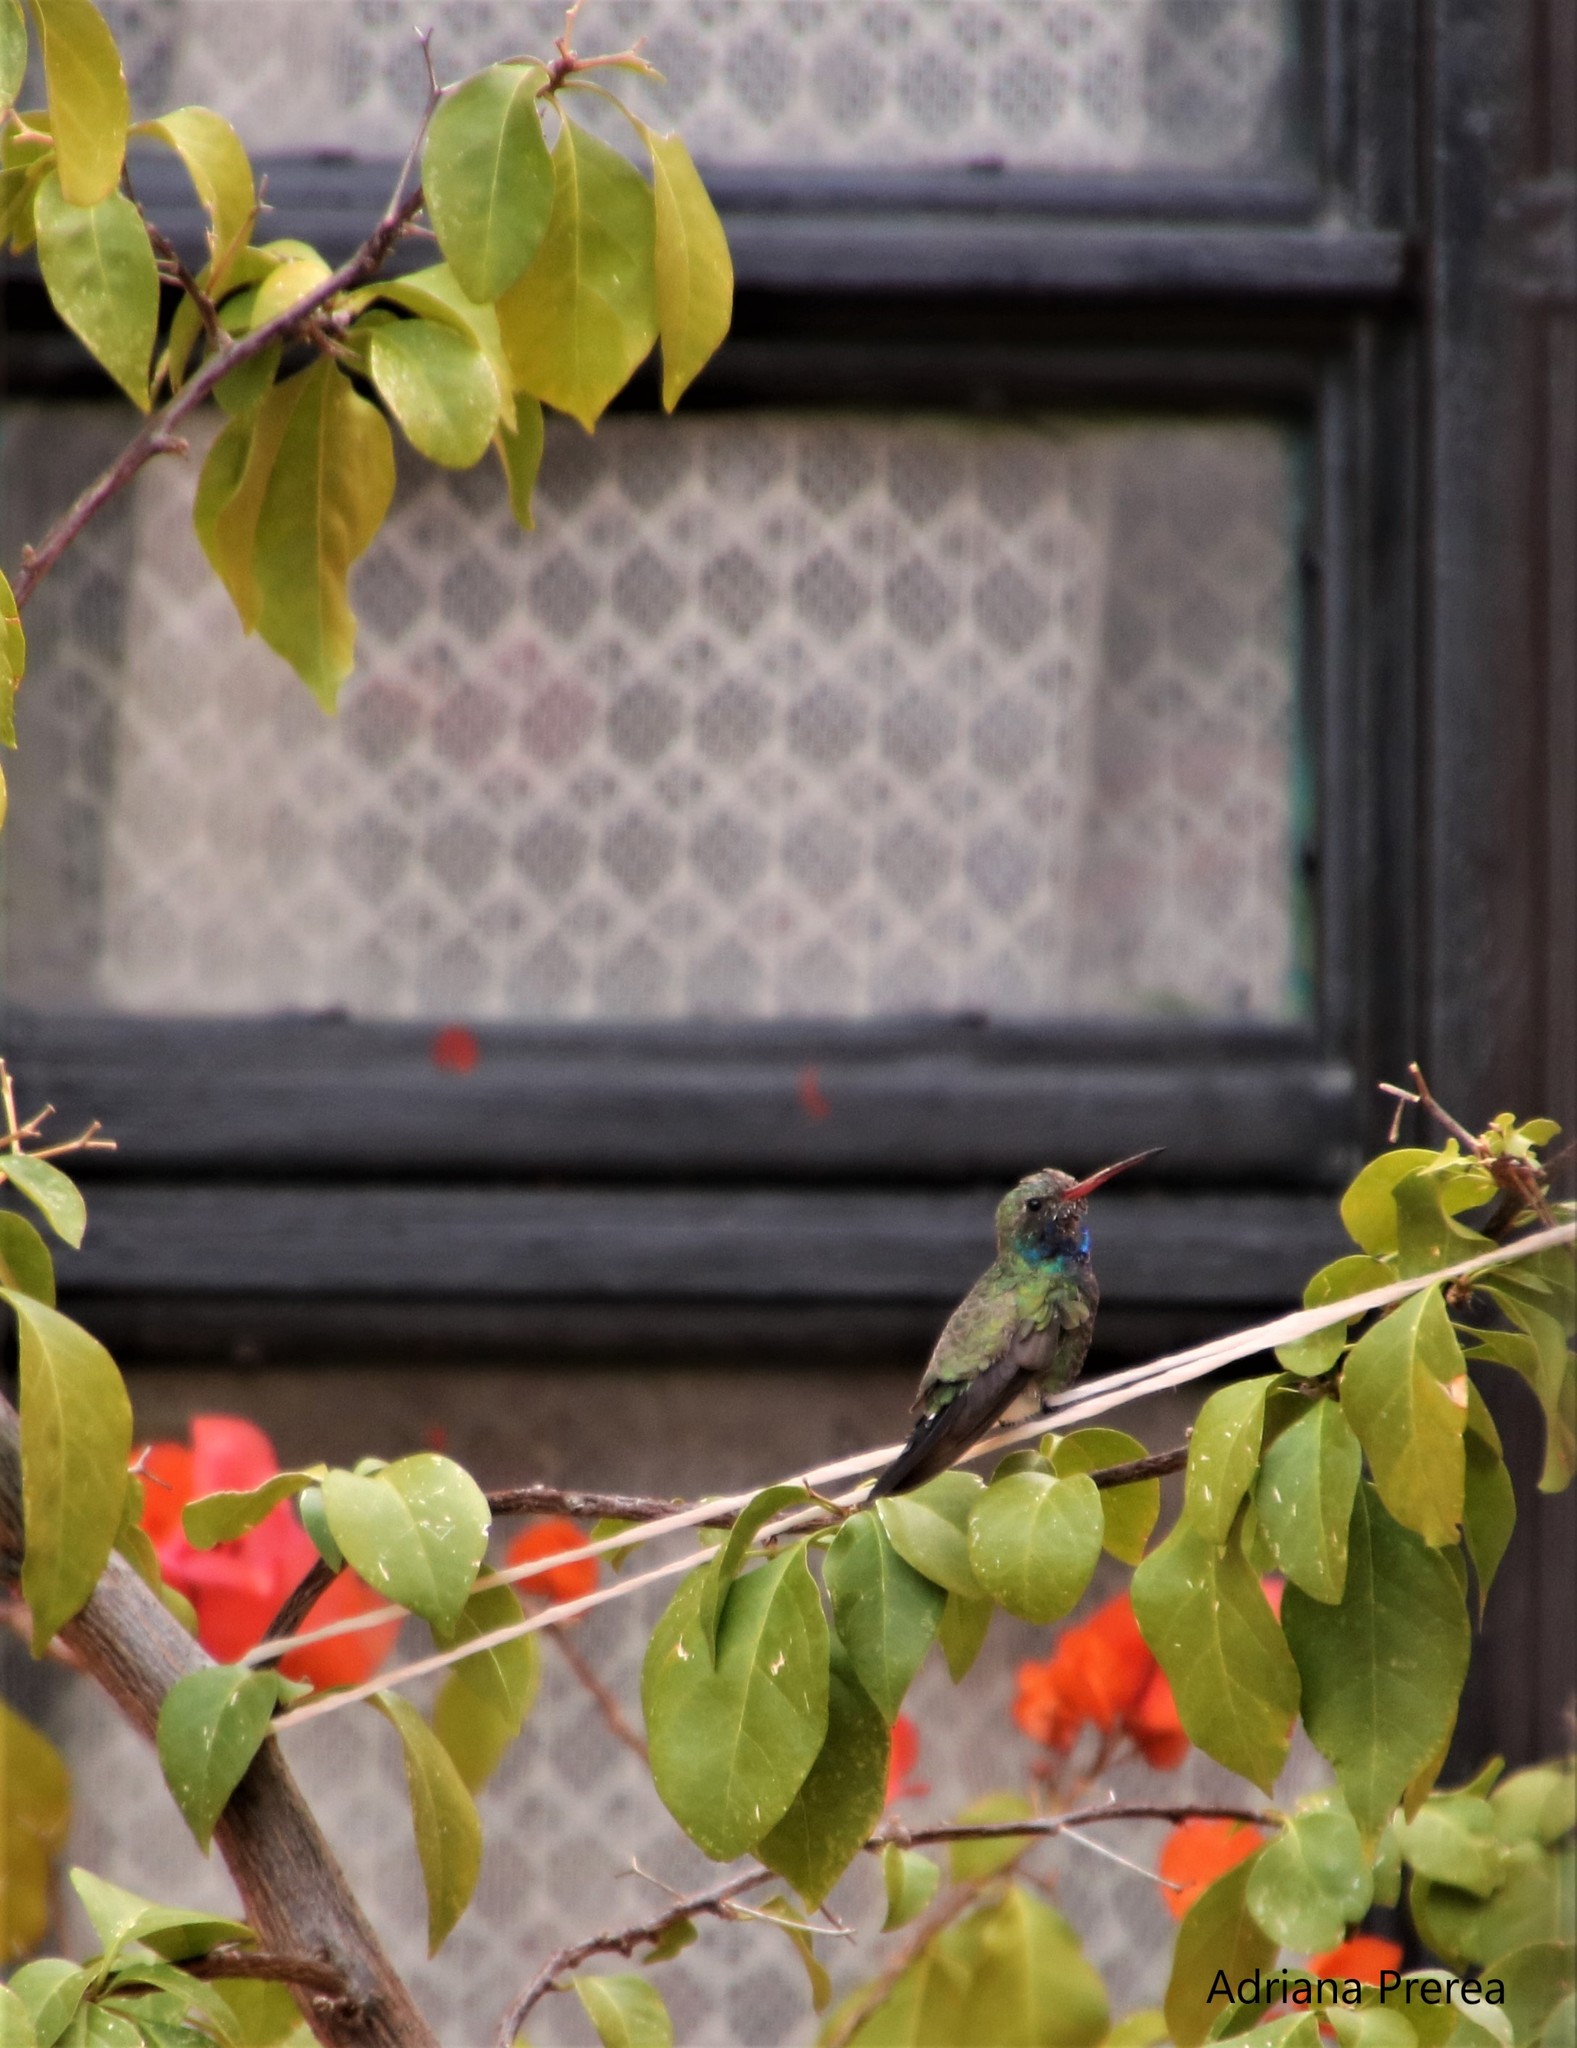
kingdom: Animalia
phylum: Chordata
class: Aves
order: Apodiformes
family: Trochilidae
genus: Cynanthus
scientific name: Cynanthus latirostris
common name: Broad-billed hummingbird
